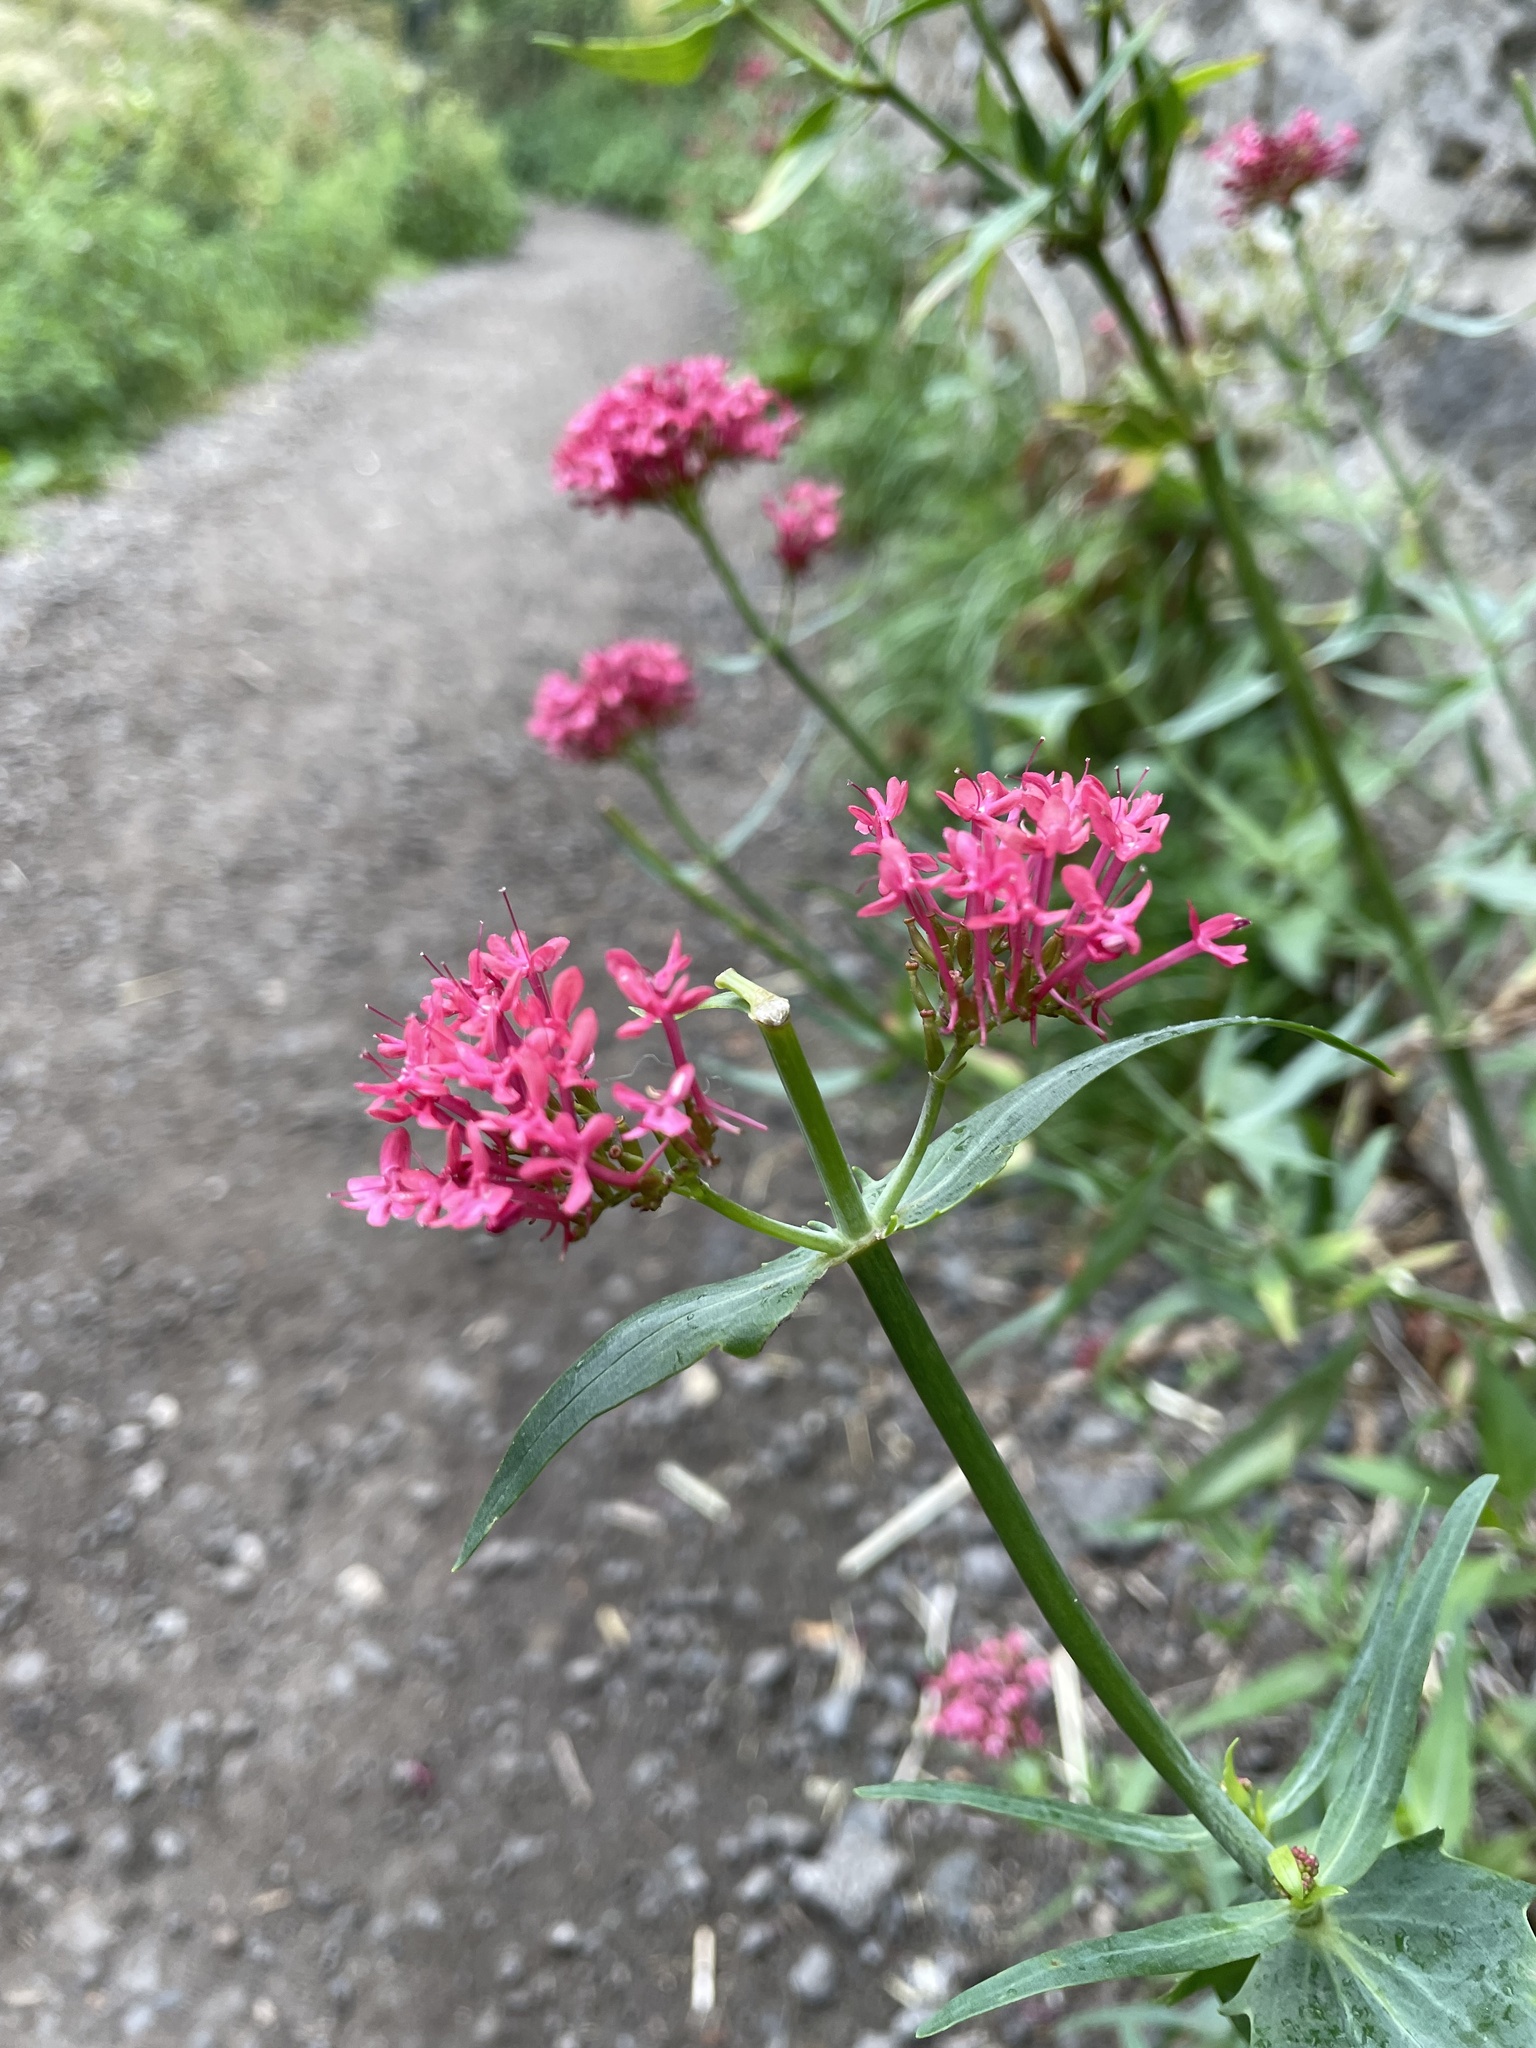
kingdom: Plantae
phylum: Tracheophyta
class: Magnoliopsida
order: Dipsacales
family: Caprifoliaceae
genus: Centranthus
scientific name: Centranthus ruber
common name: Red valerian
